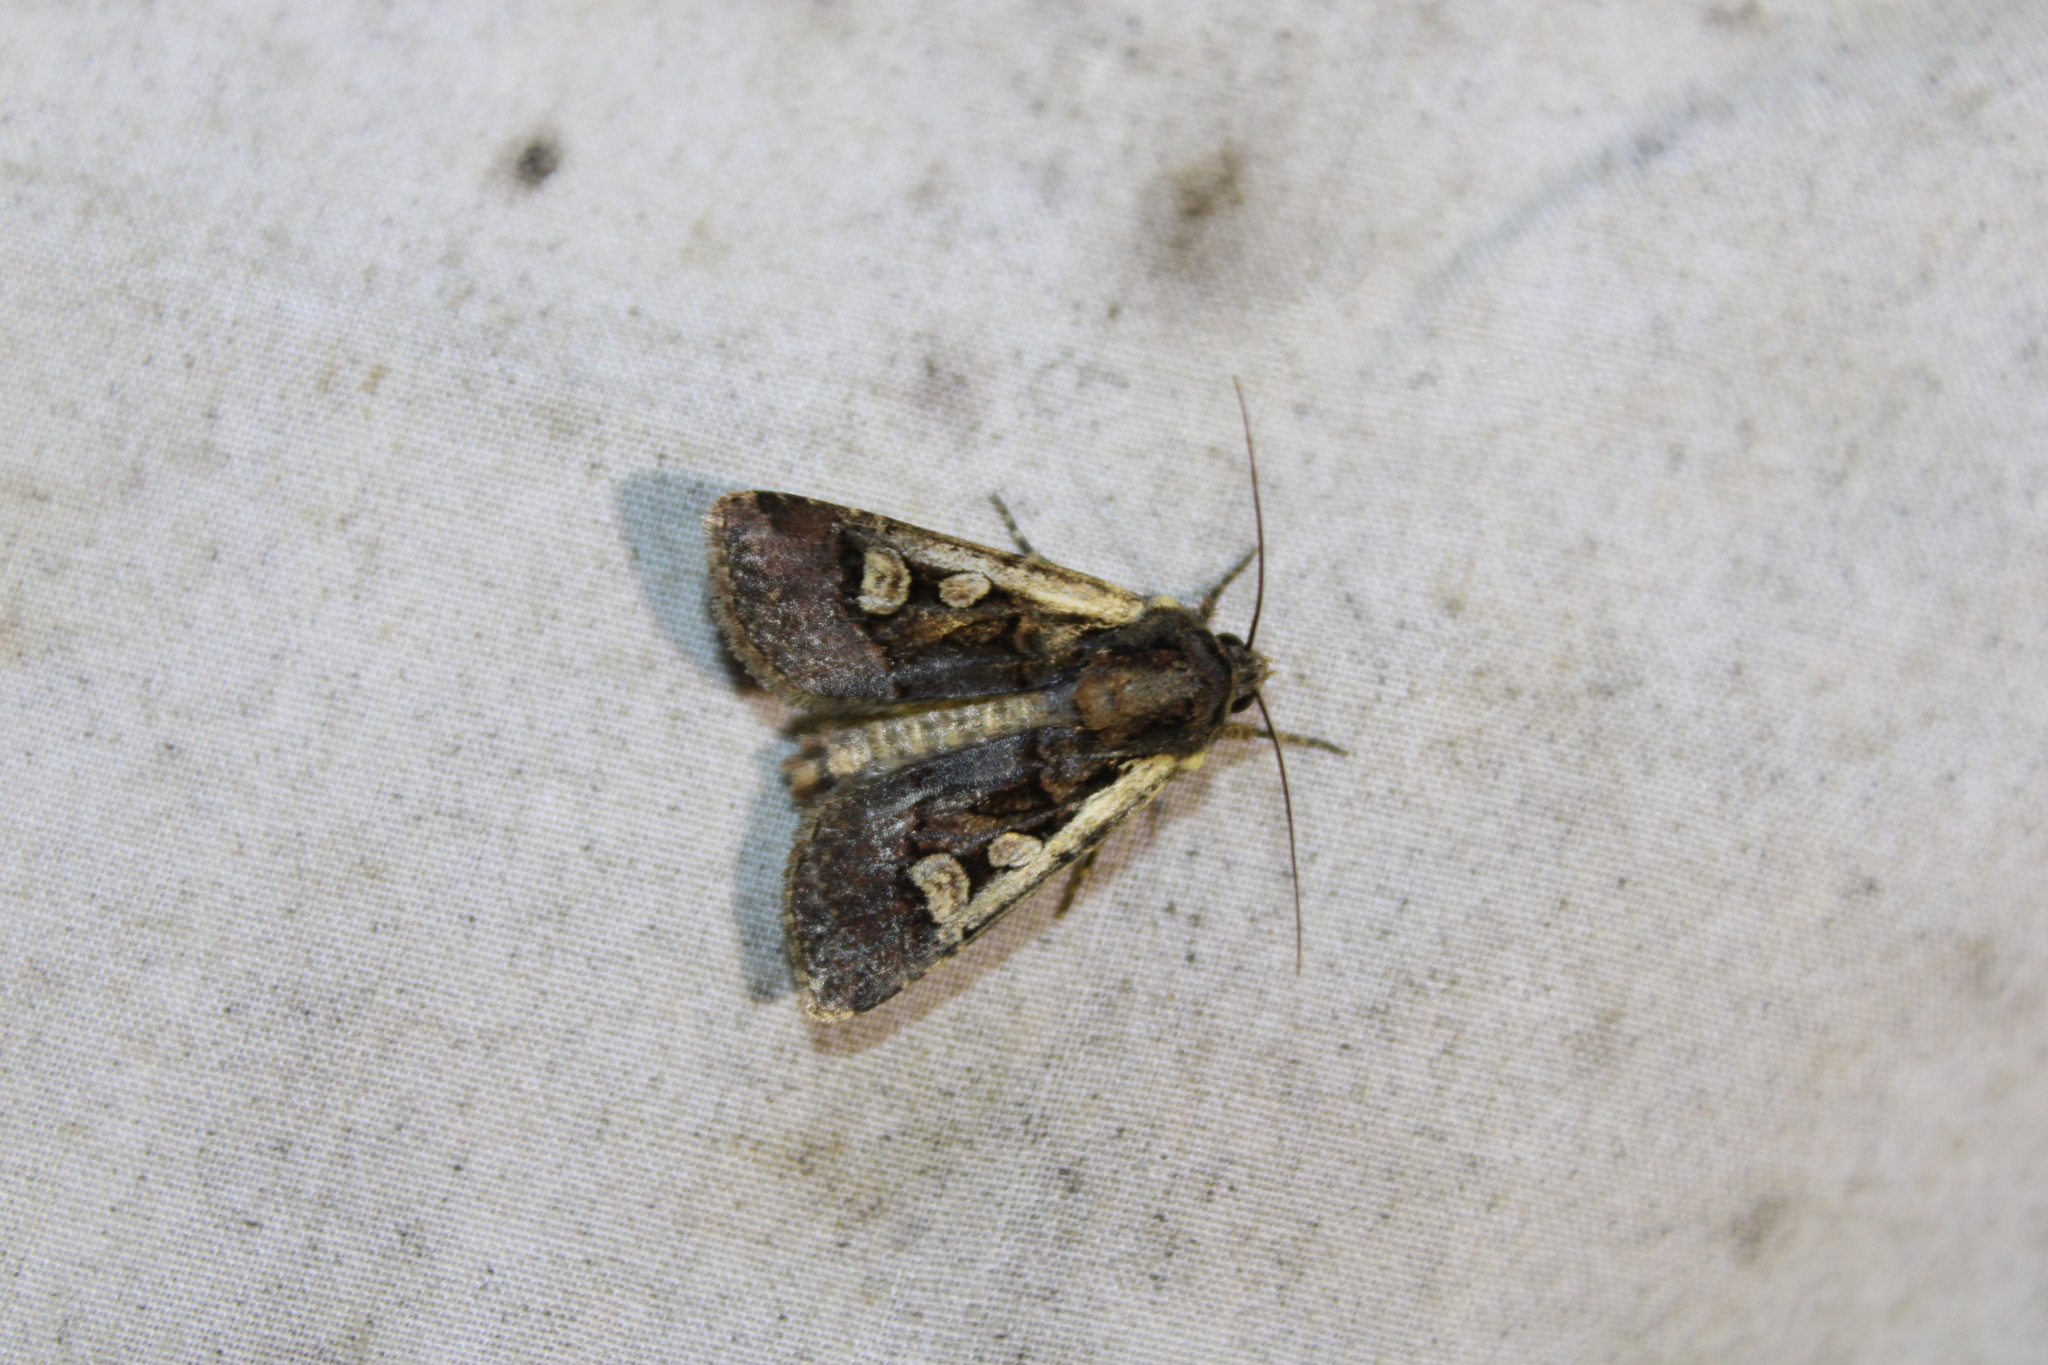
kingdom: Animalia
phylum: Arthropoda
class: Insecta
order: Lepidoptera
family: Noctuidae
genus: Euxoa
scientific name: Euxoa obeliscoides
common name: Obelisk dart moth
